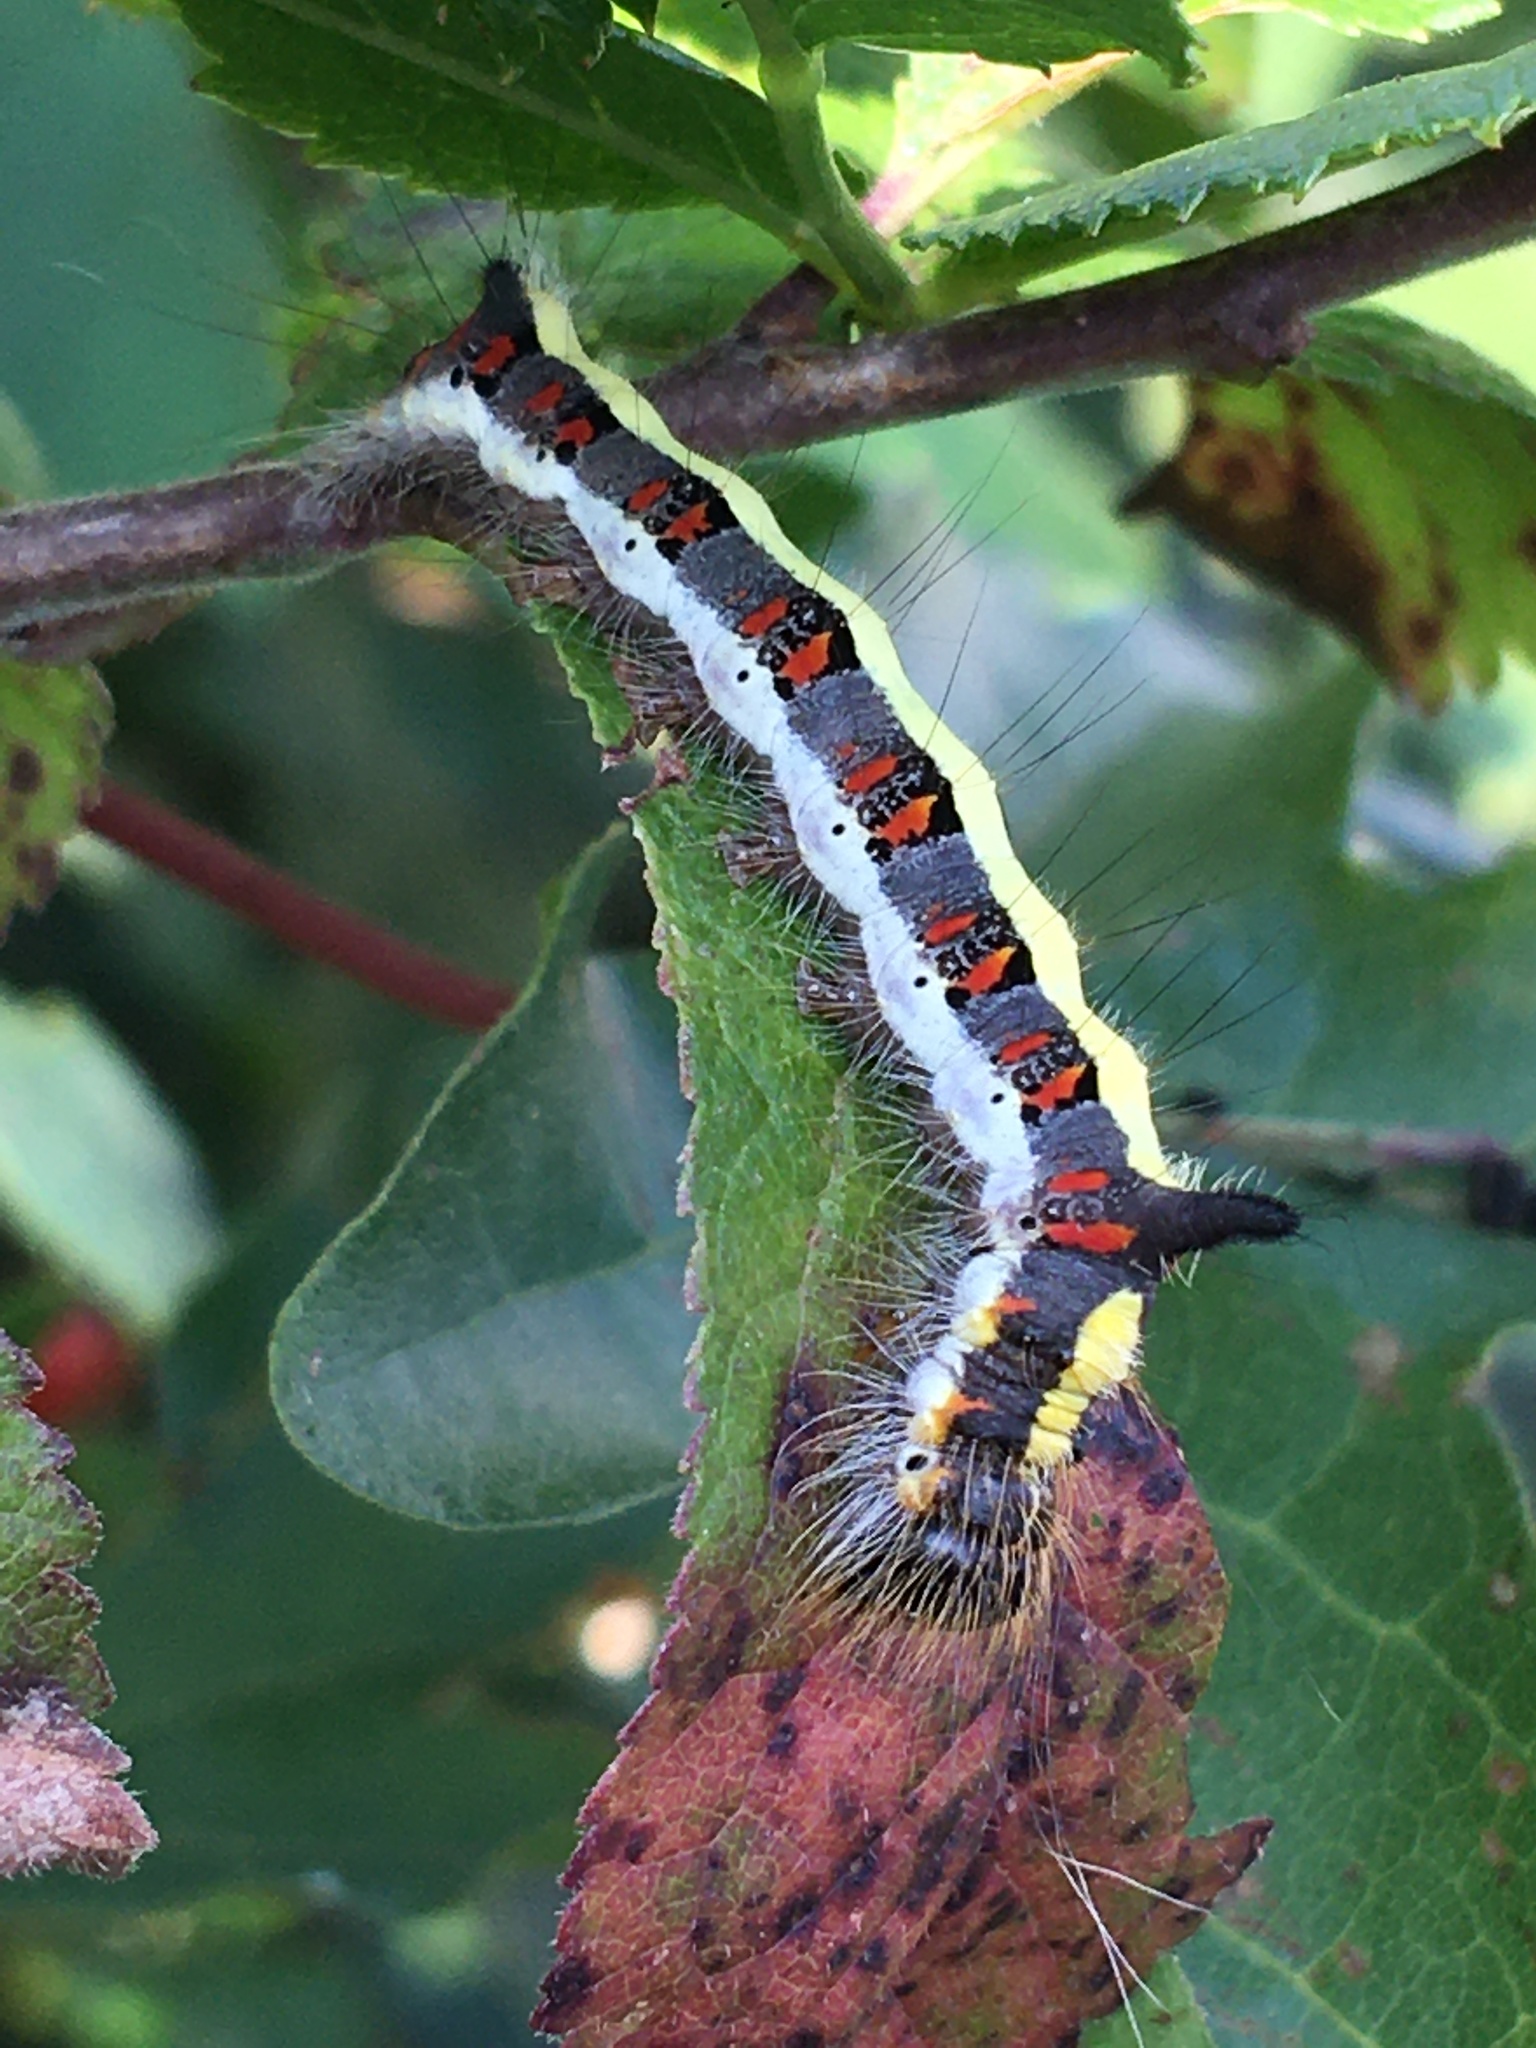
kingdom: Animalia
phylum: Arthropoda
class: Insecta
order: Lepidoptera
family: Noctuidae
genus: Acronicta
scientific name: Acronicta psi
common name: Grey dagger
